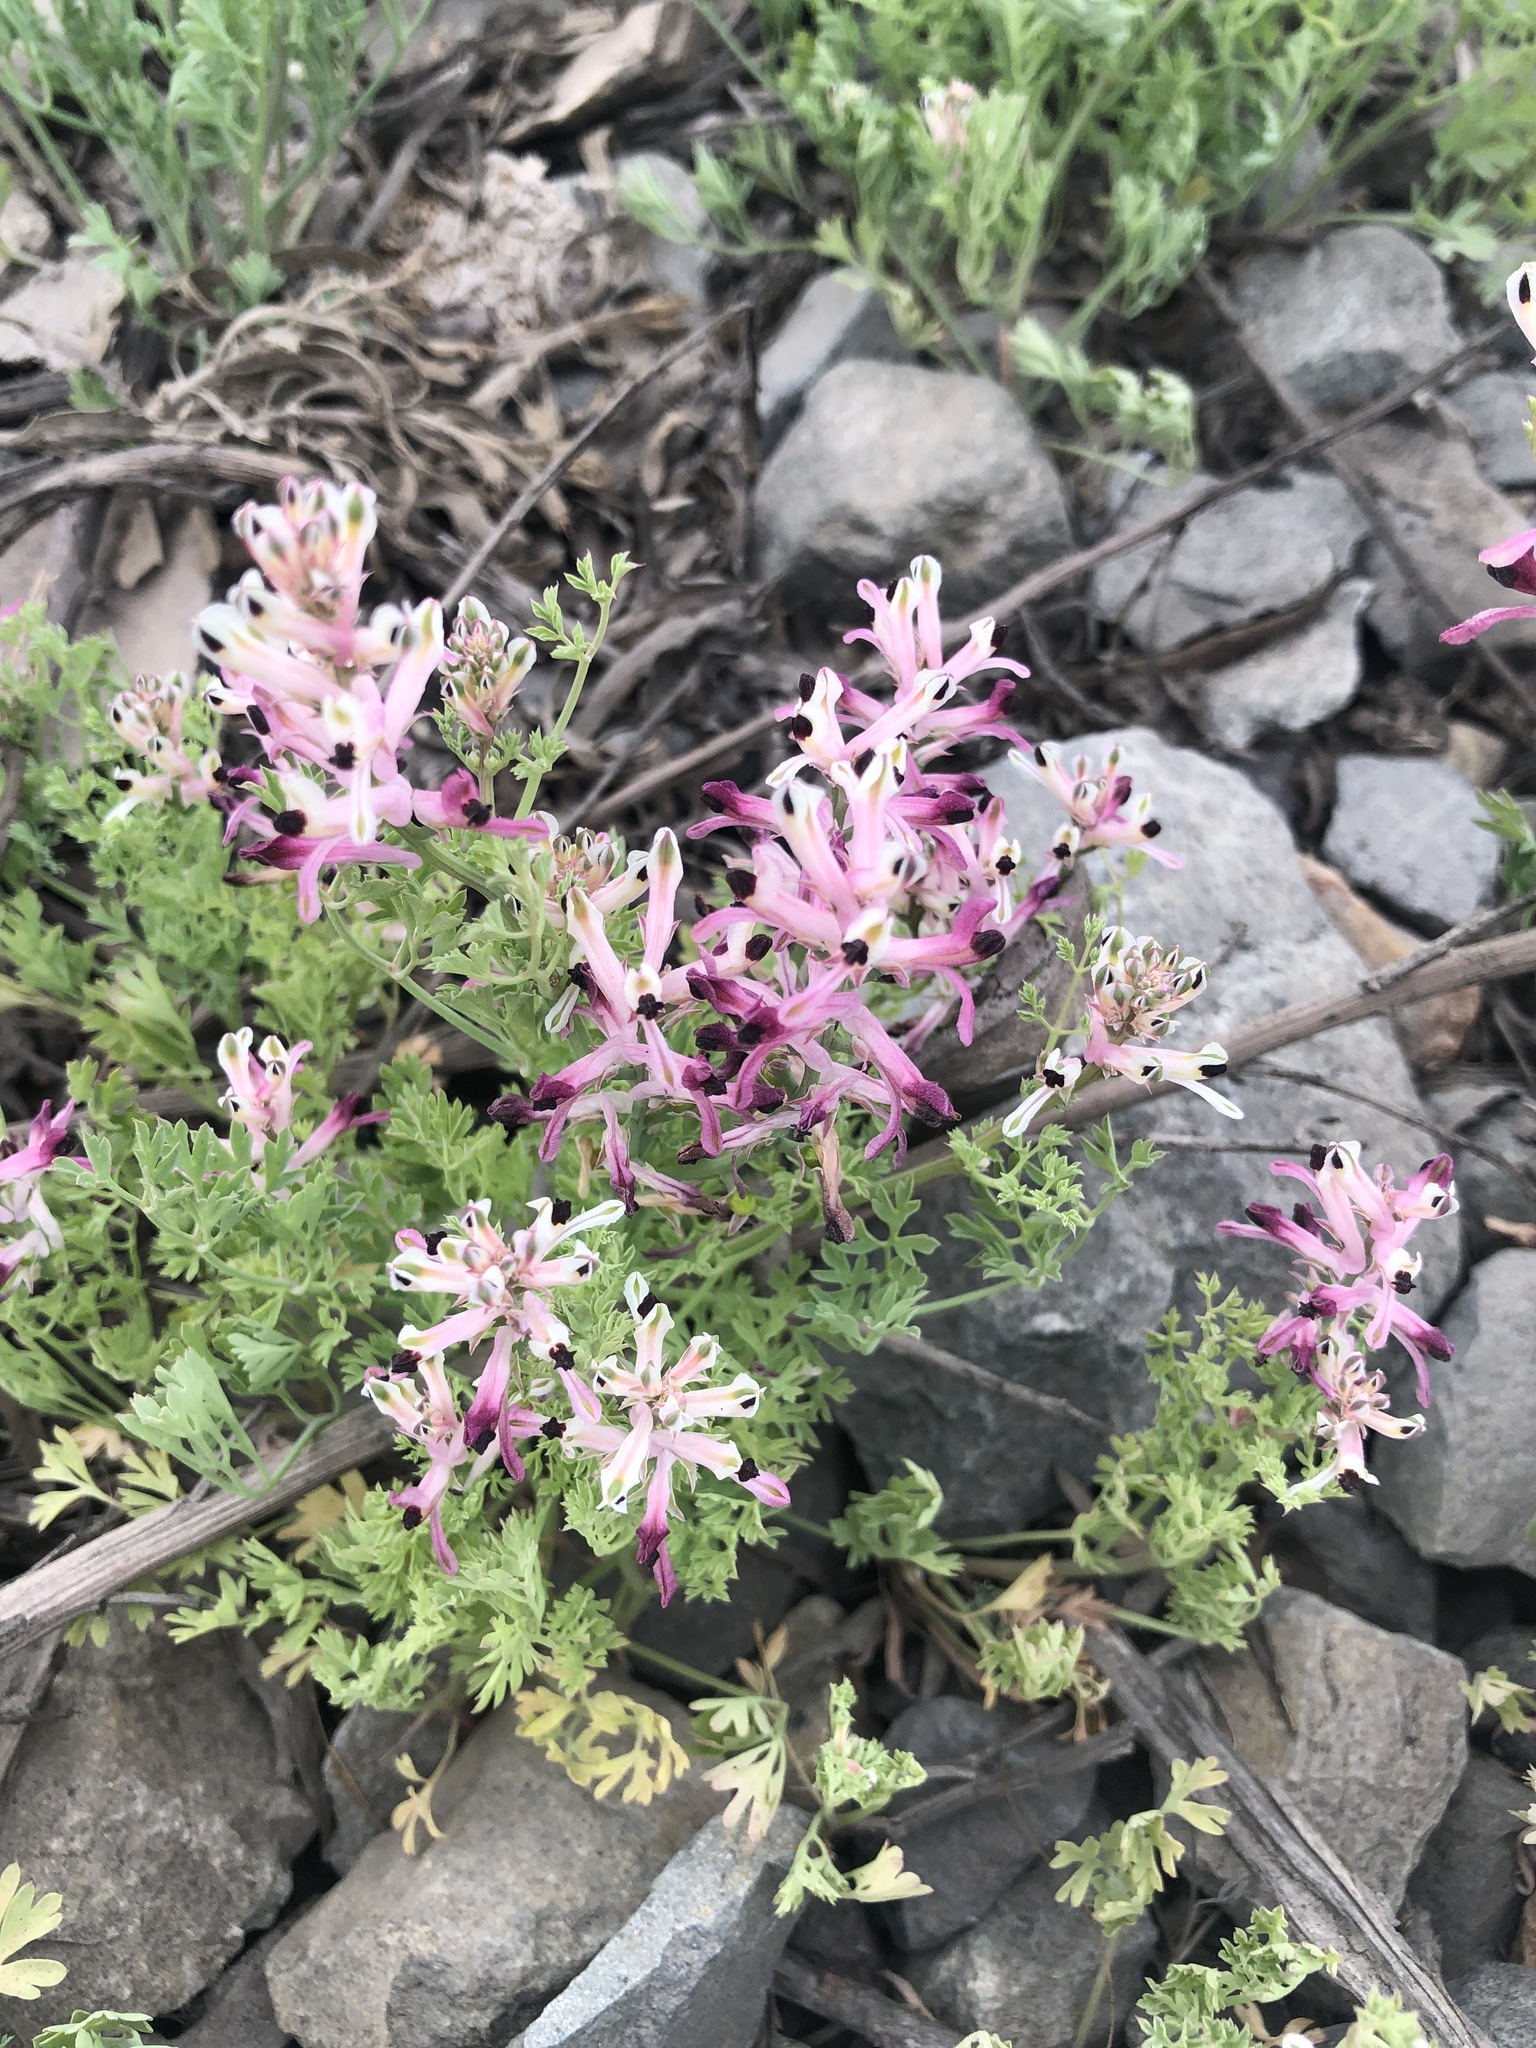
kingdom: Plantae
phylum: Tracheophyta
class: Magnoliopsida
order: Ranunculales
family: Papaveraceae
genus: Fumaria
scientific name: Fumaria agraria
